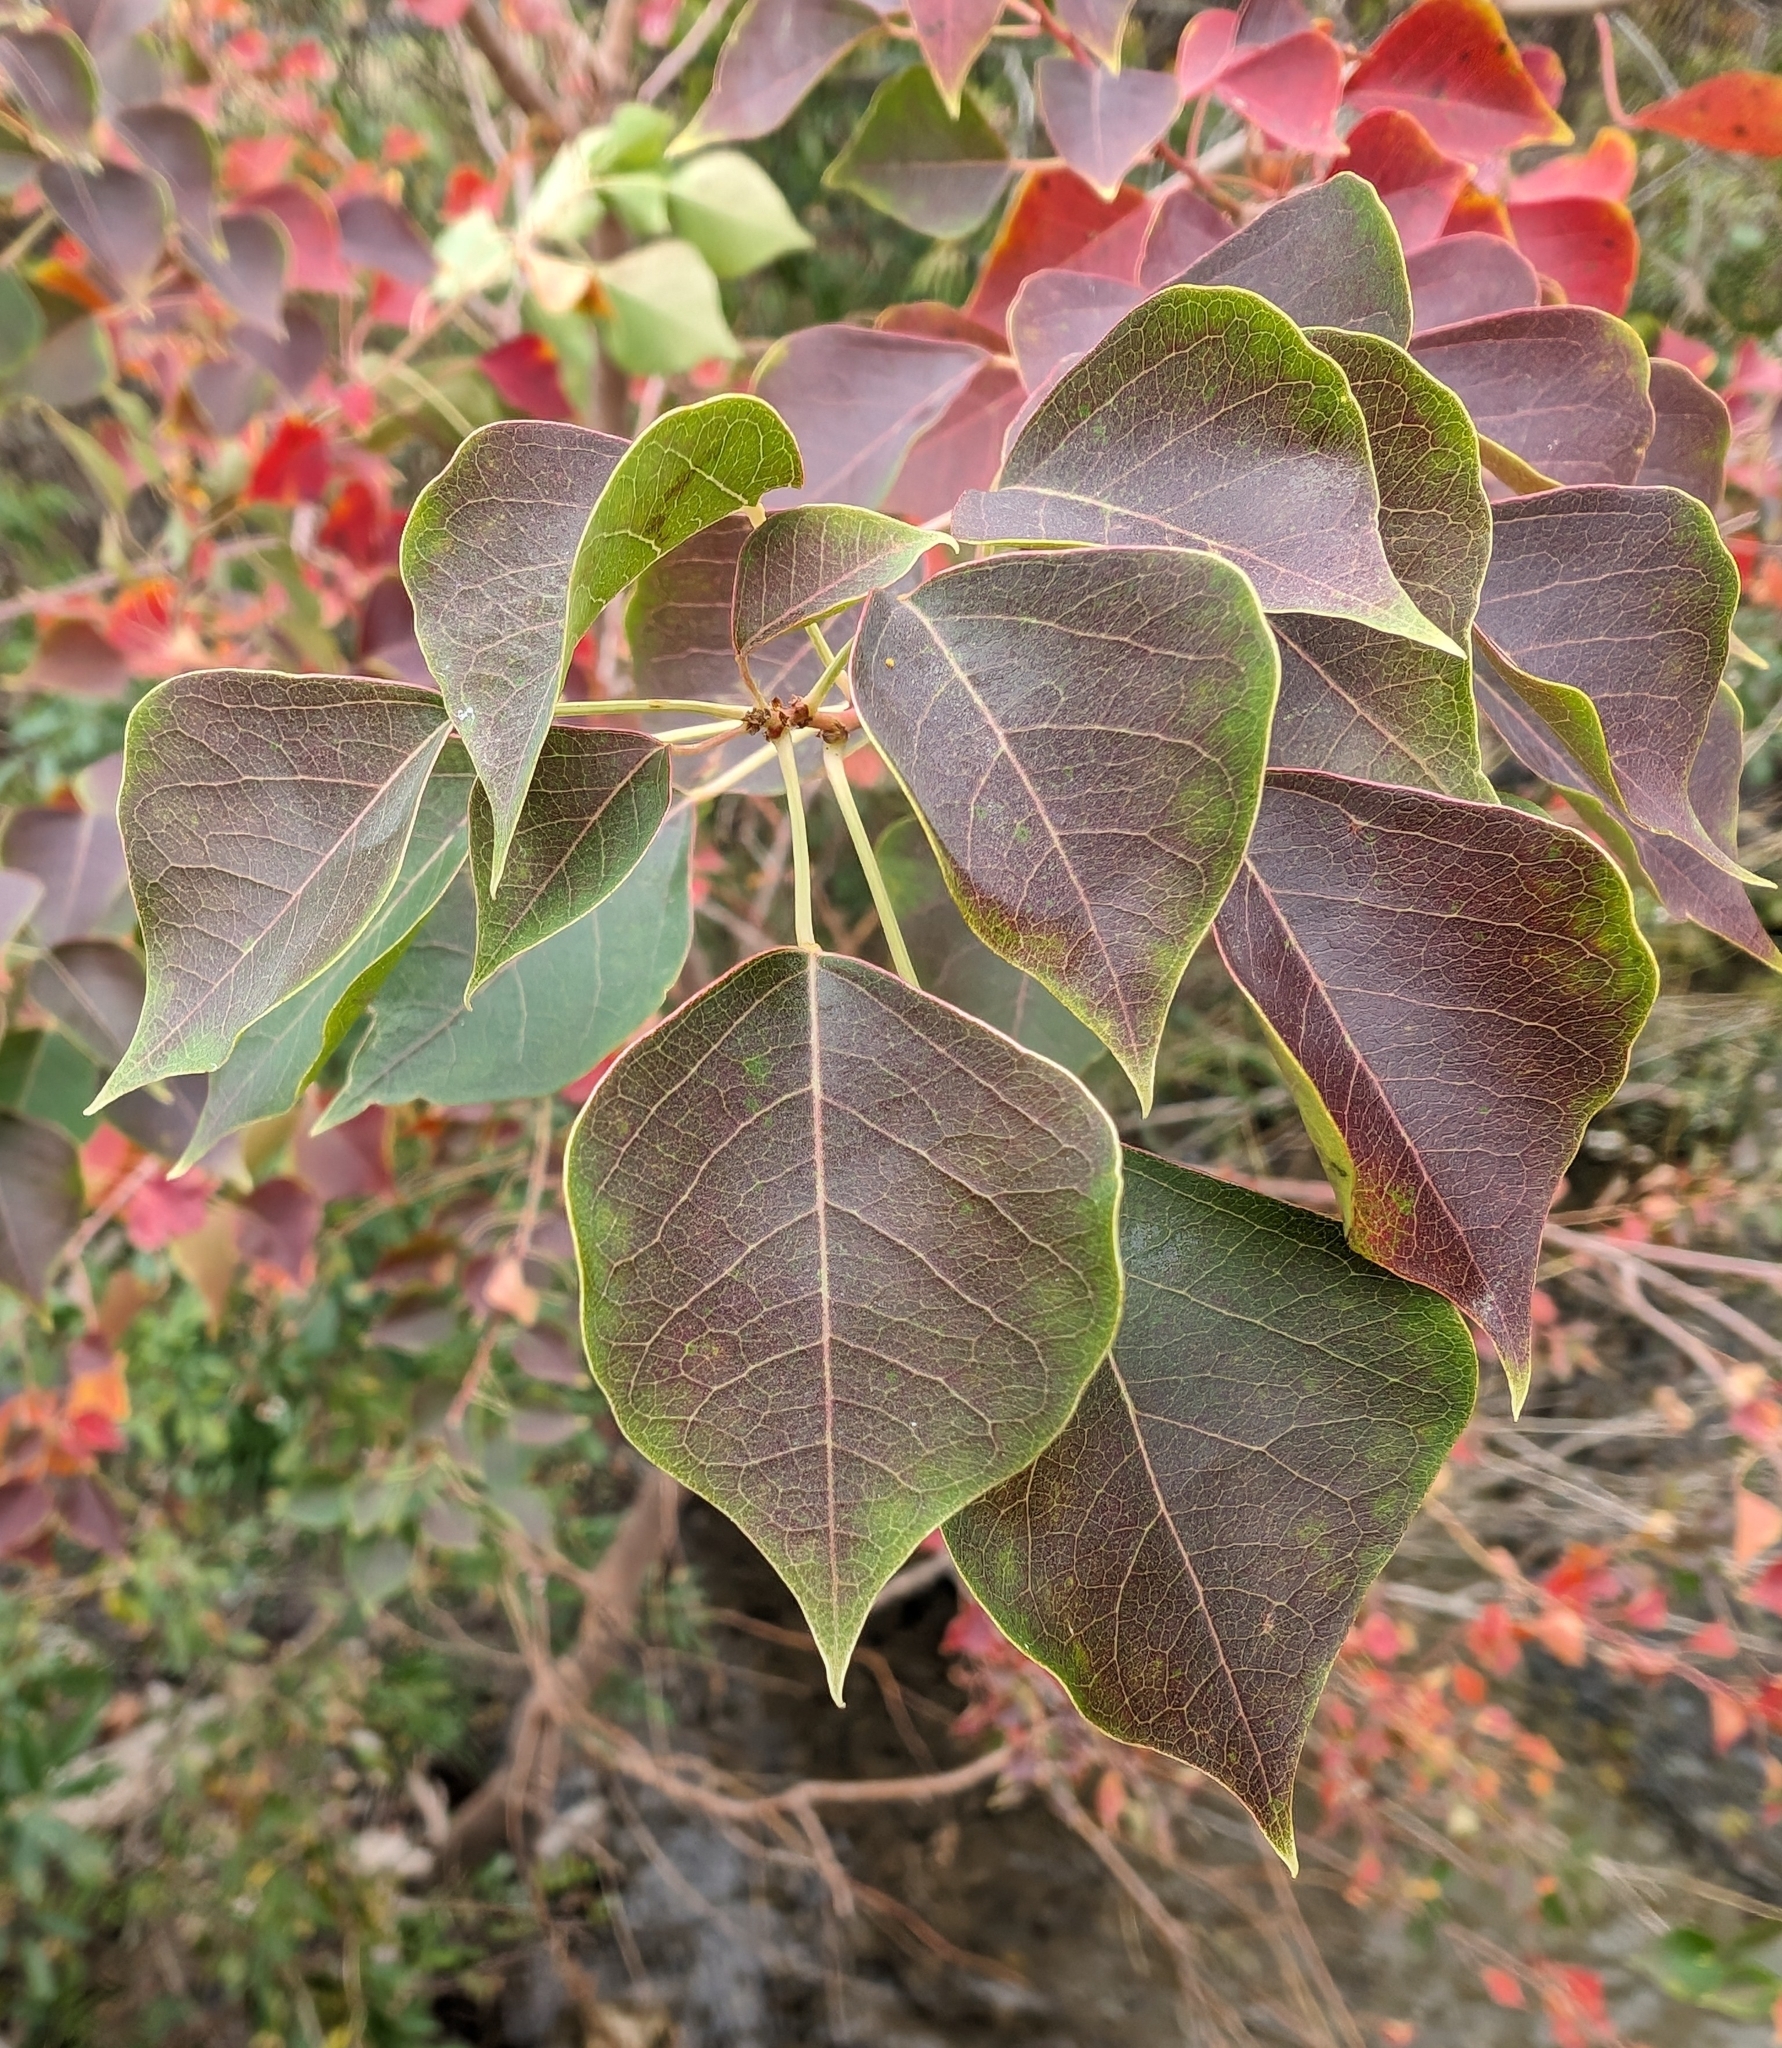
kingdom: Plantae
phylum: Tracheophyta
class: Magnoliopsida
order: Malpighiales
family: Euphorbiaceae
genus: Triadica
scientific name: Triadica sebifera
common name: Chinese tallow
